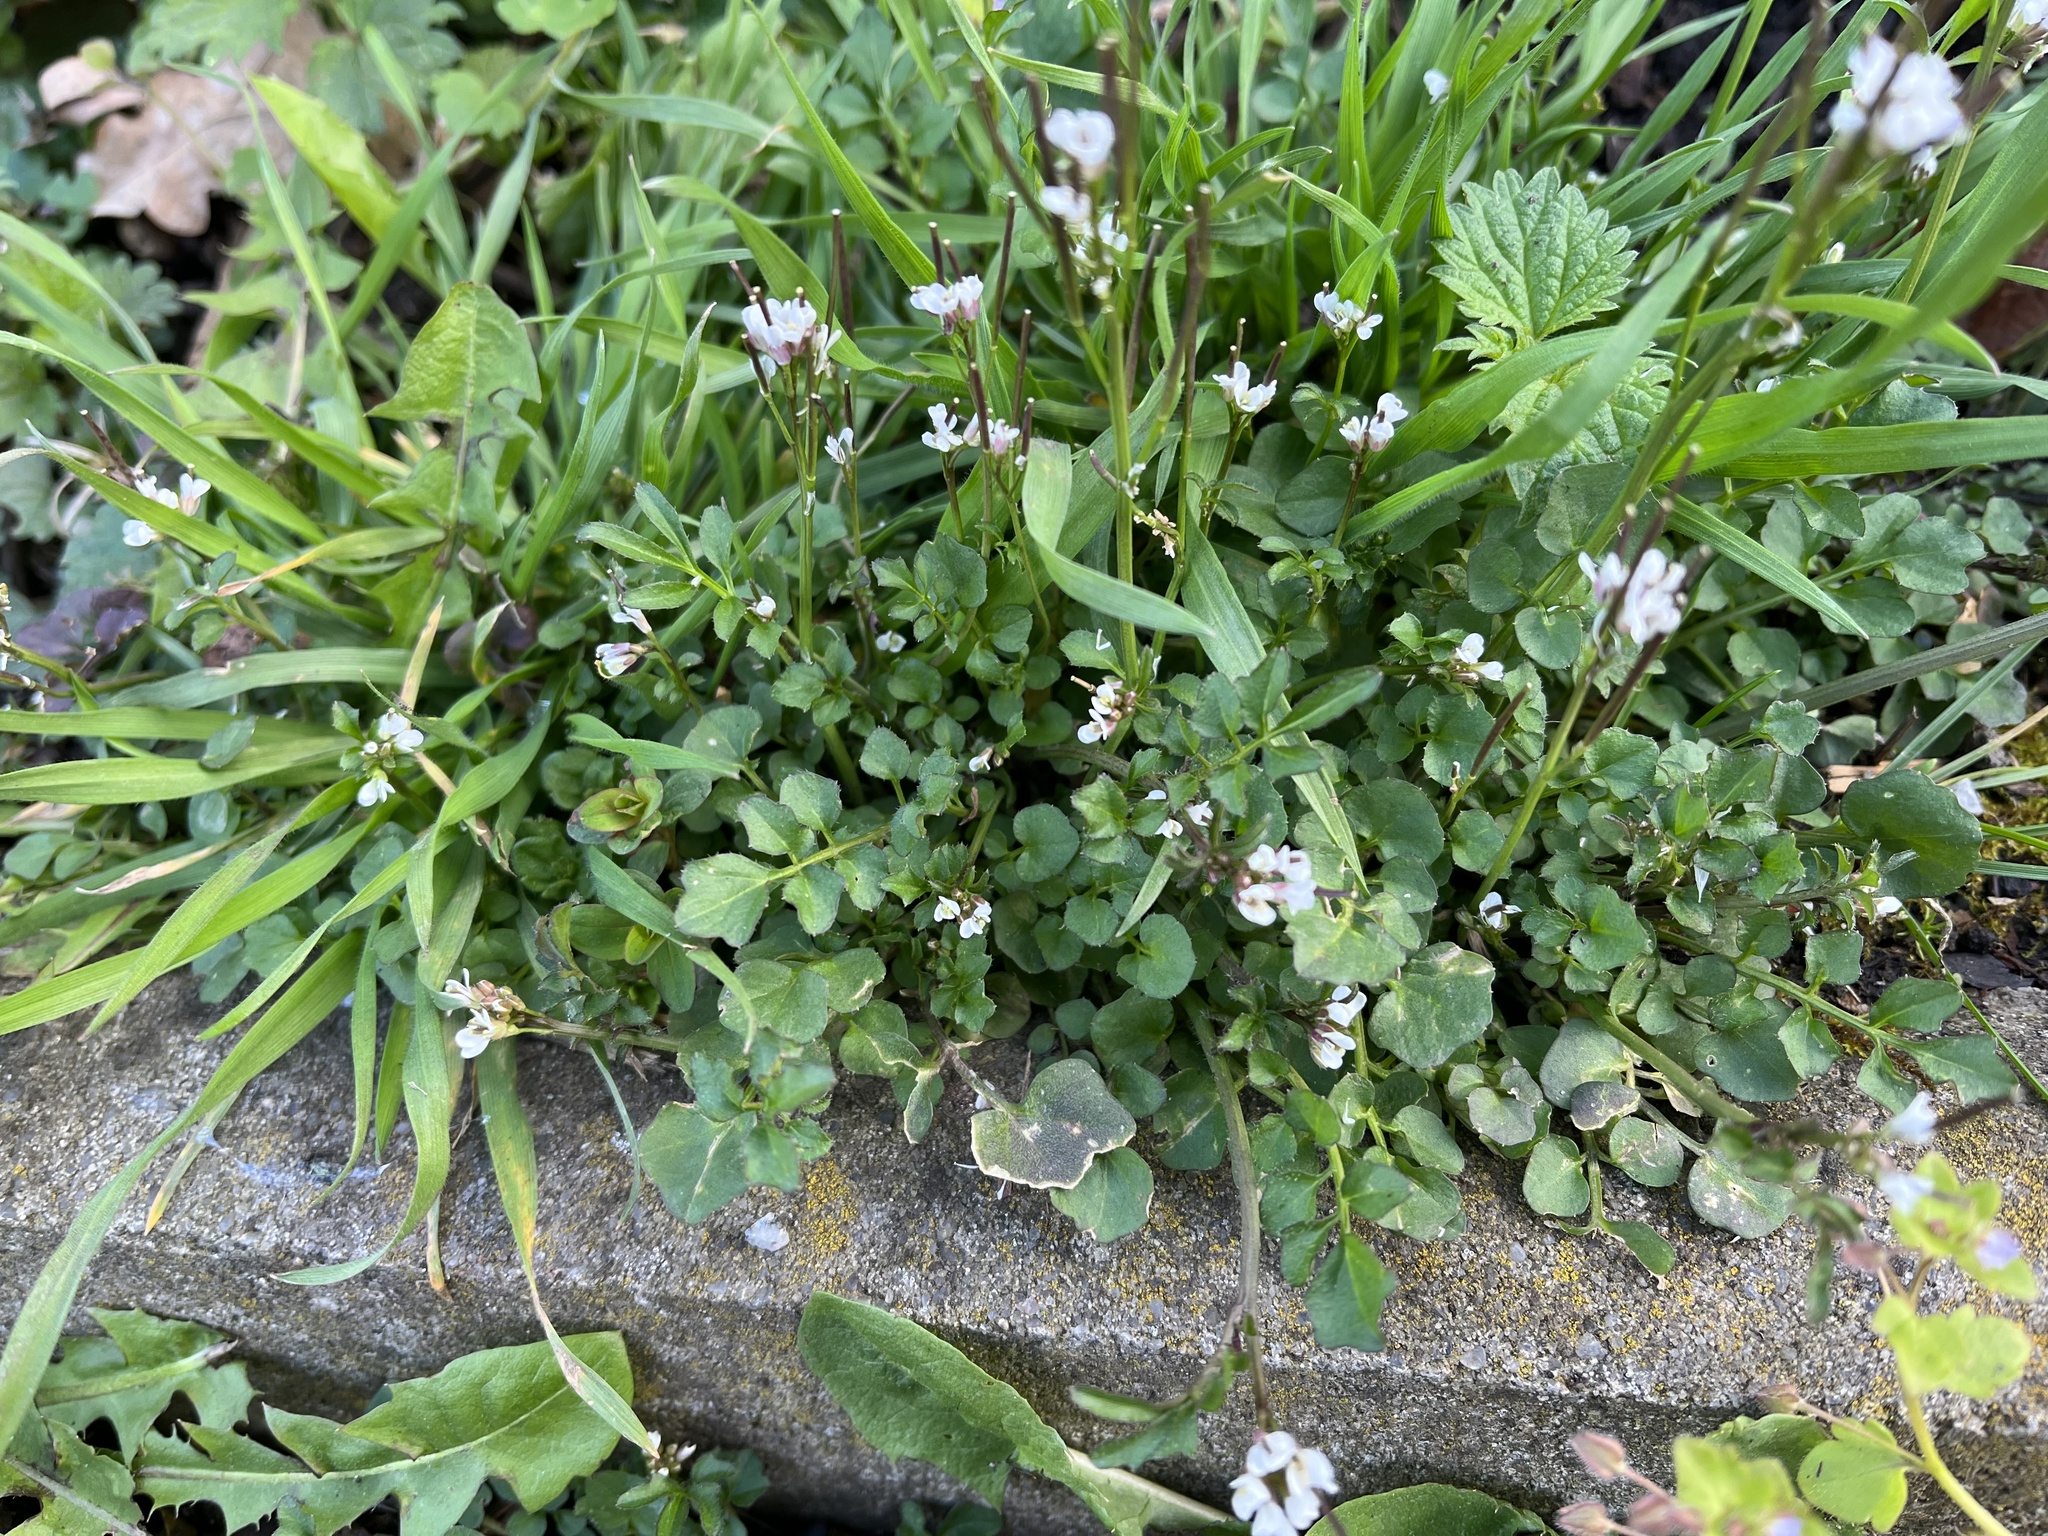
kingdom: Plantae
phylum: Tracheophyta
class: Magnoliopsida
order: Brassicales
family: Brassicaceae
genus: Cardamine
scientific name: Cardamine hirsuta
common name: Hairy bittercress
